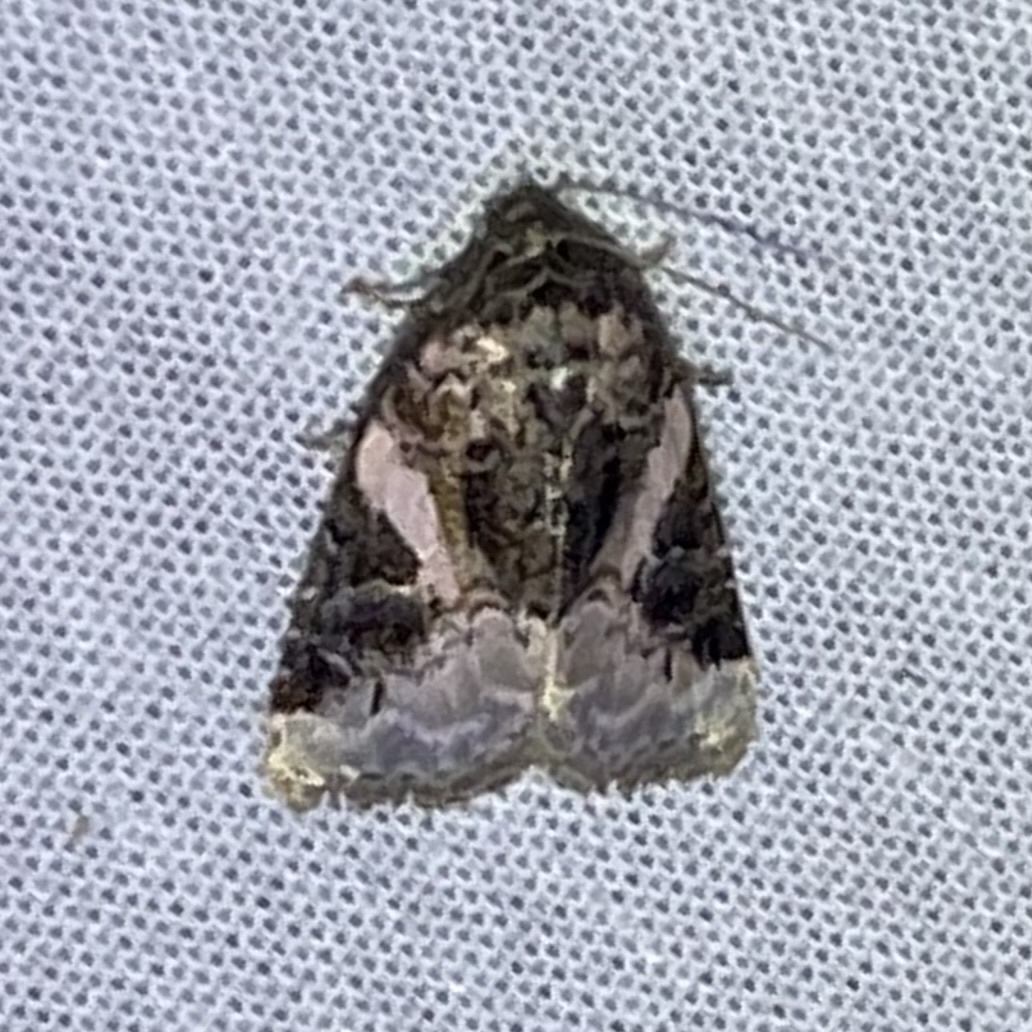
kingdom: Animalia
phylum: Arthropoda
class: Insecta
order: Lepidoptera
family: Noctuidae
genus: Pseudeustrotia
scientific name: Pseudeustrotia carneola
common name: Pink-barred lithacodia moth
